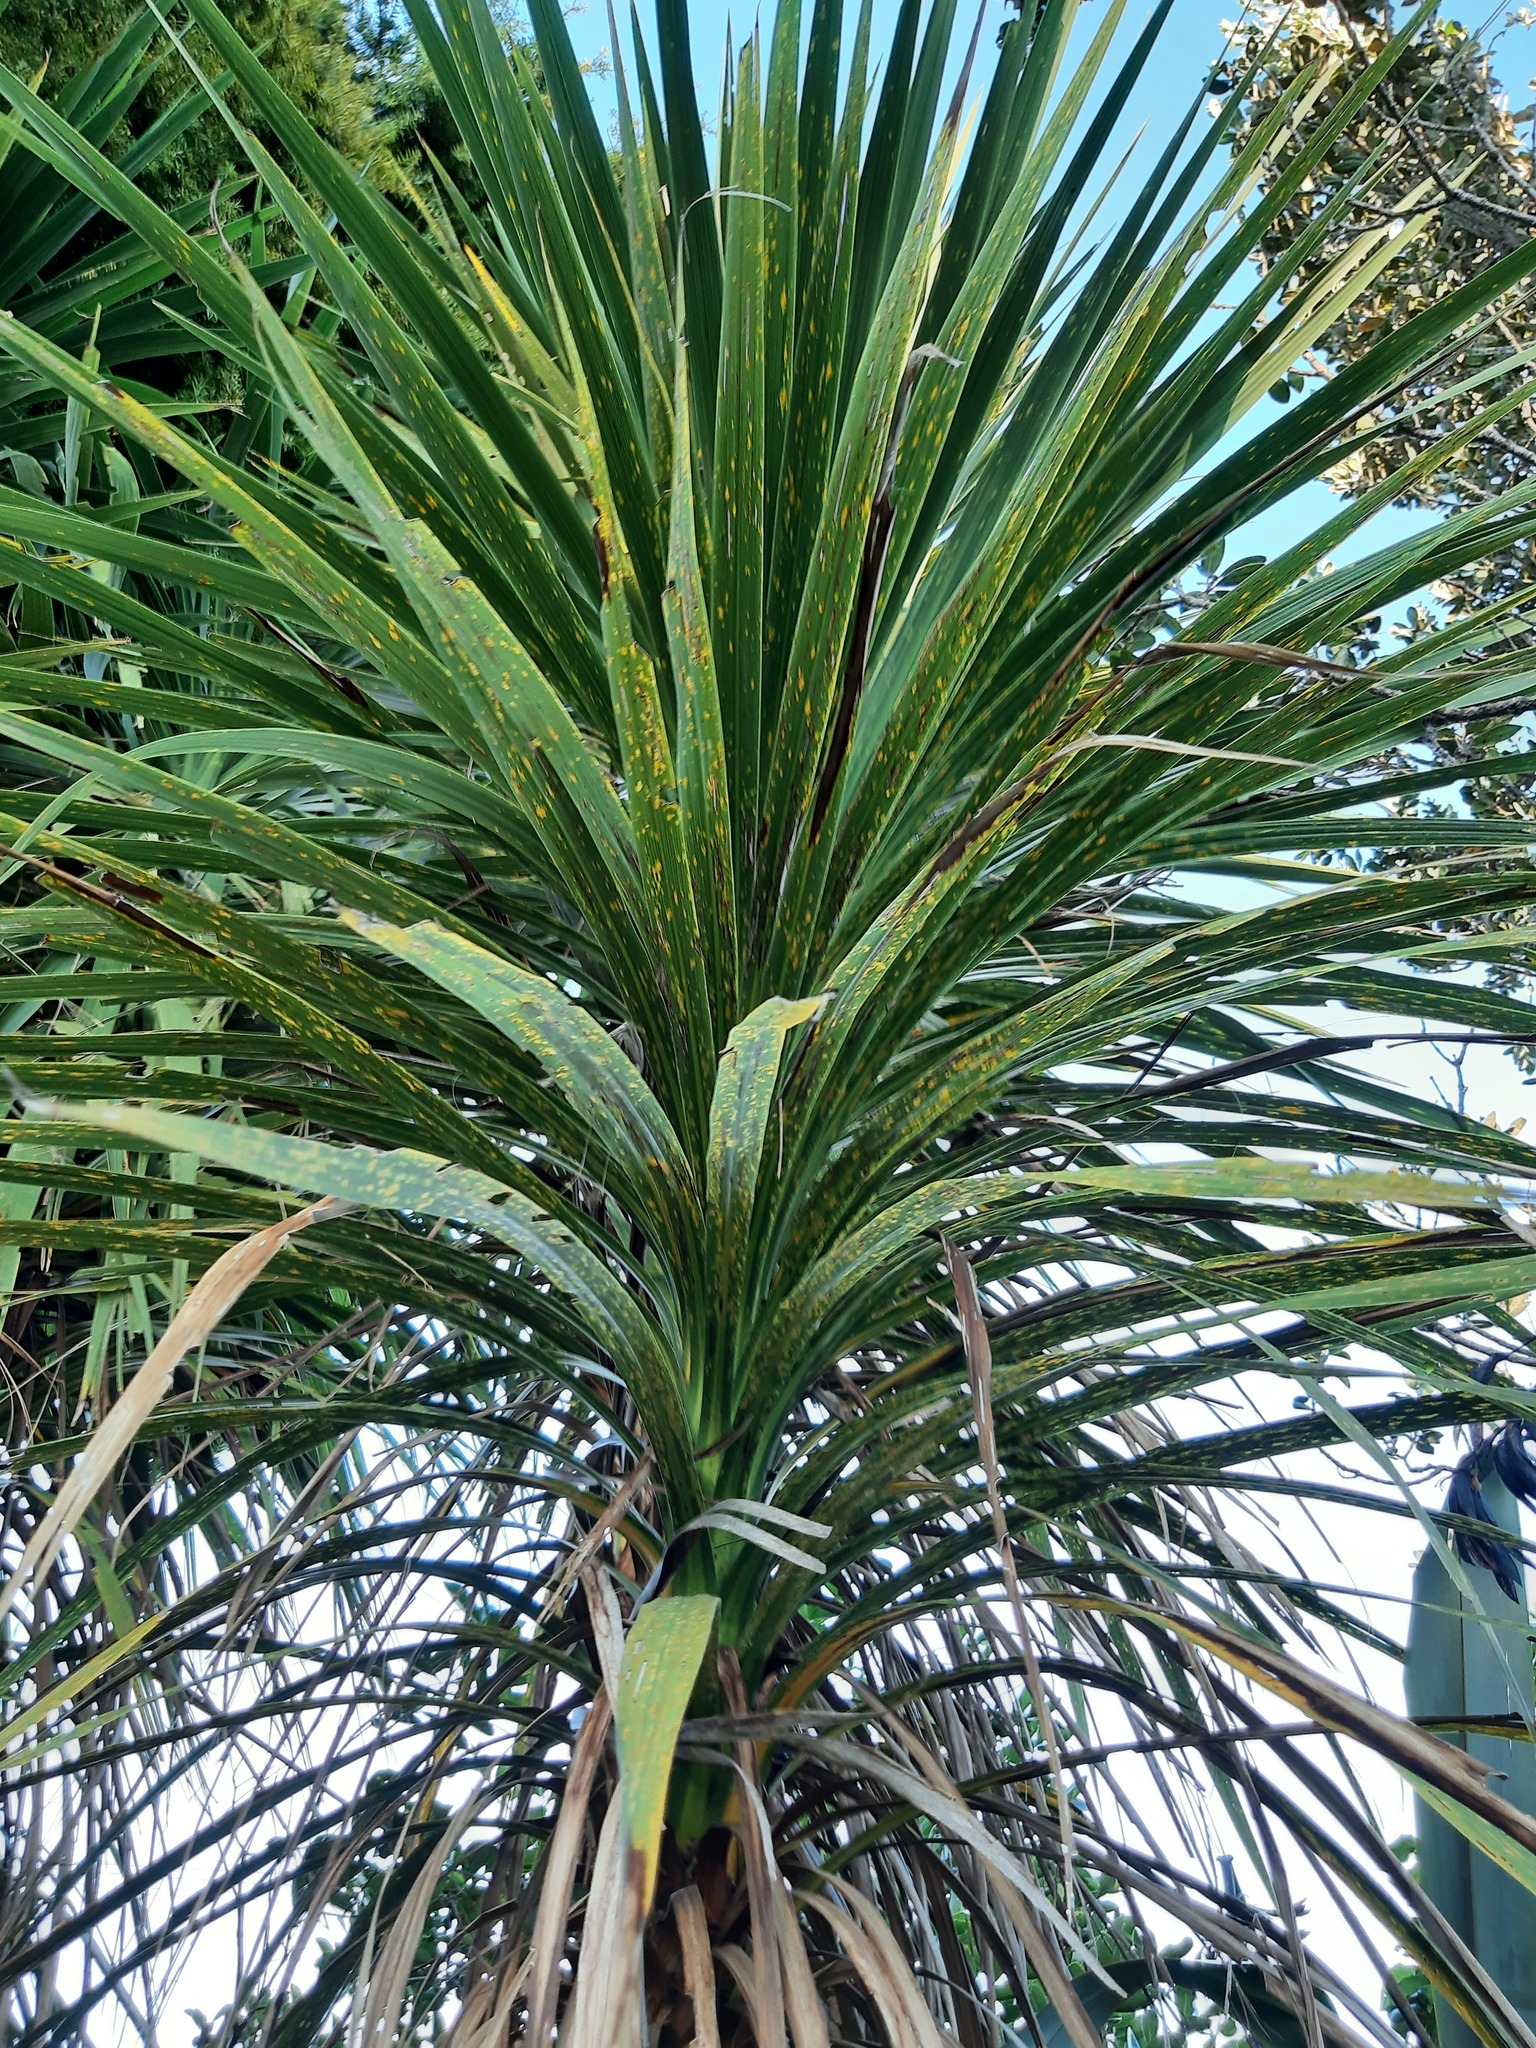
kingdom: Plantae
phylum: Tracheophyta
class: Liliopsida
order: Asparagales
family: Asparagaceae
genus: Cordyline
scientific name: Cordyline australis
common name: Cabbage-palm
